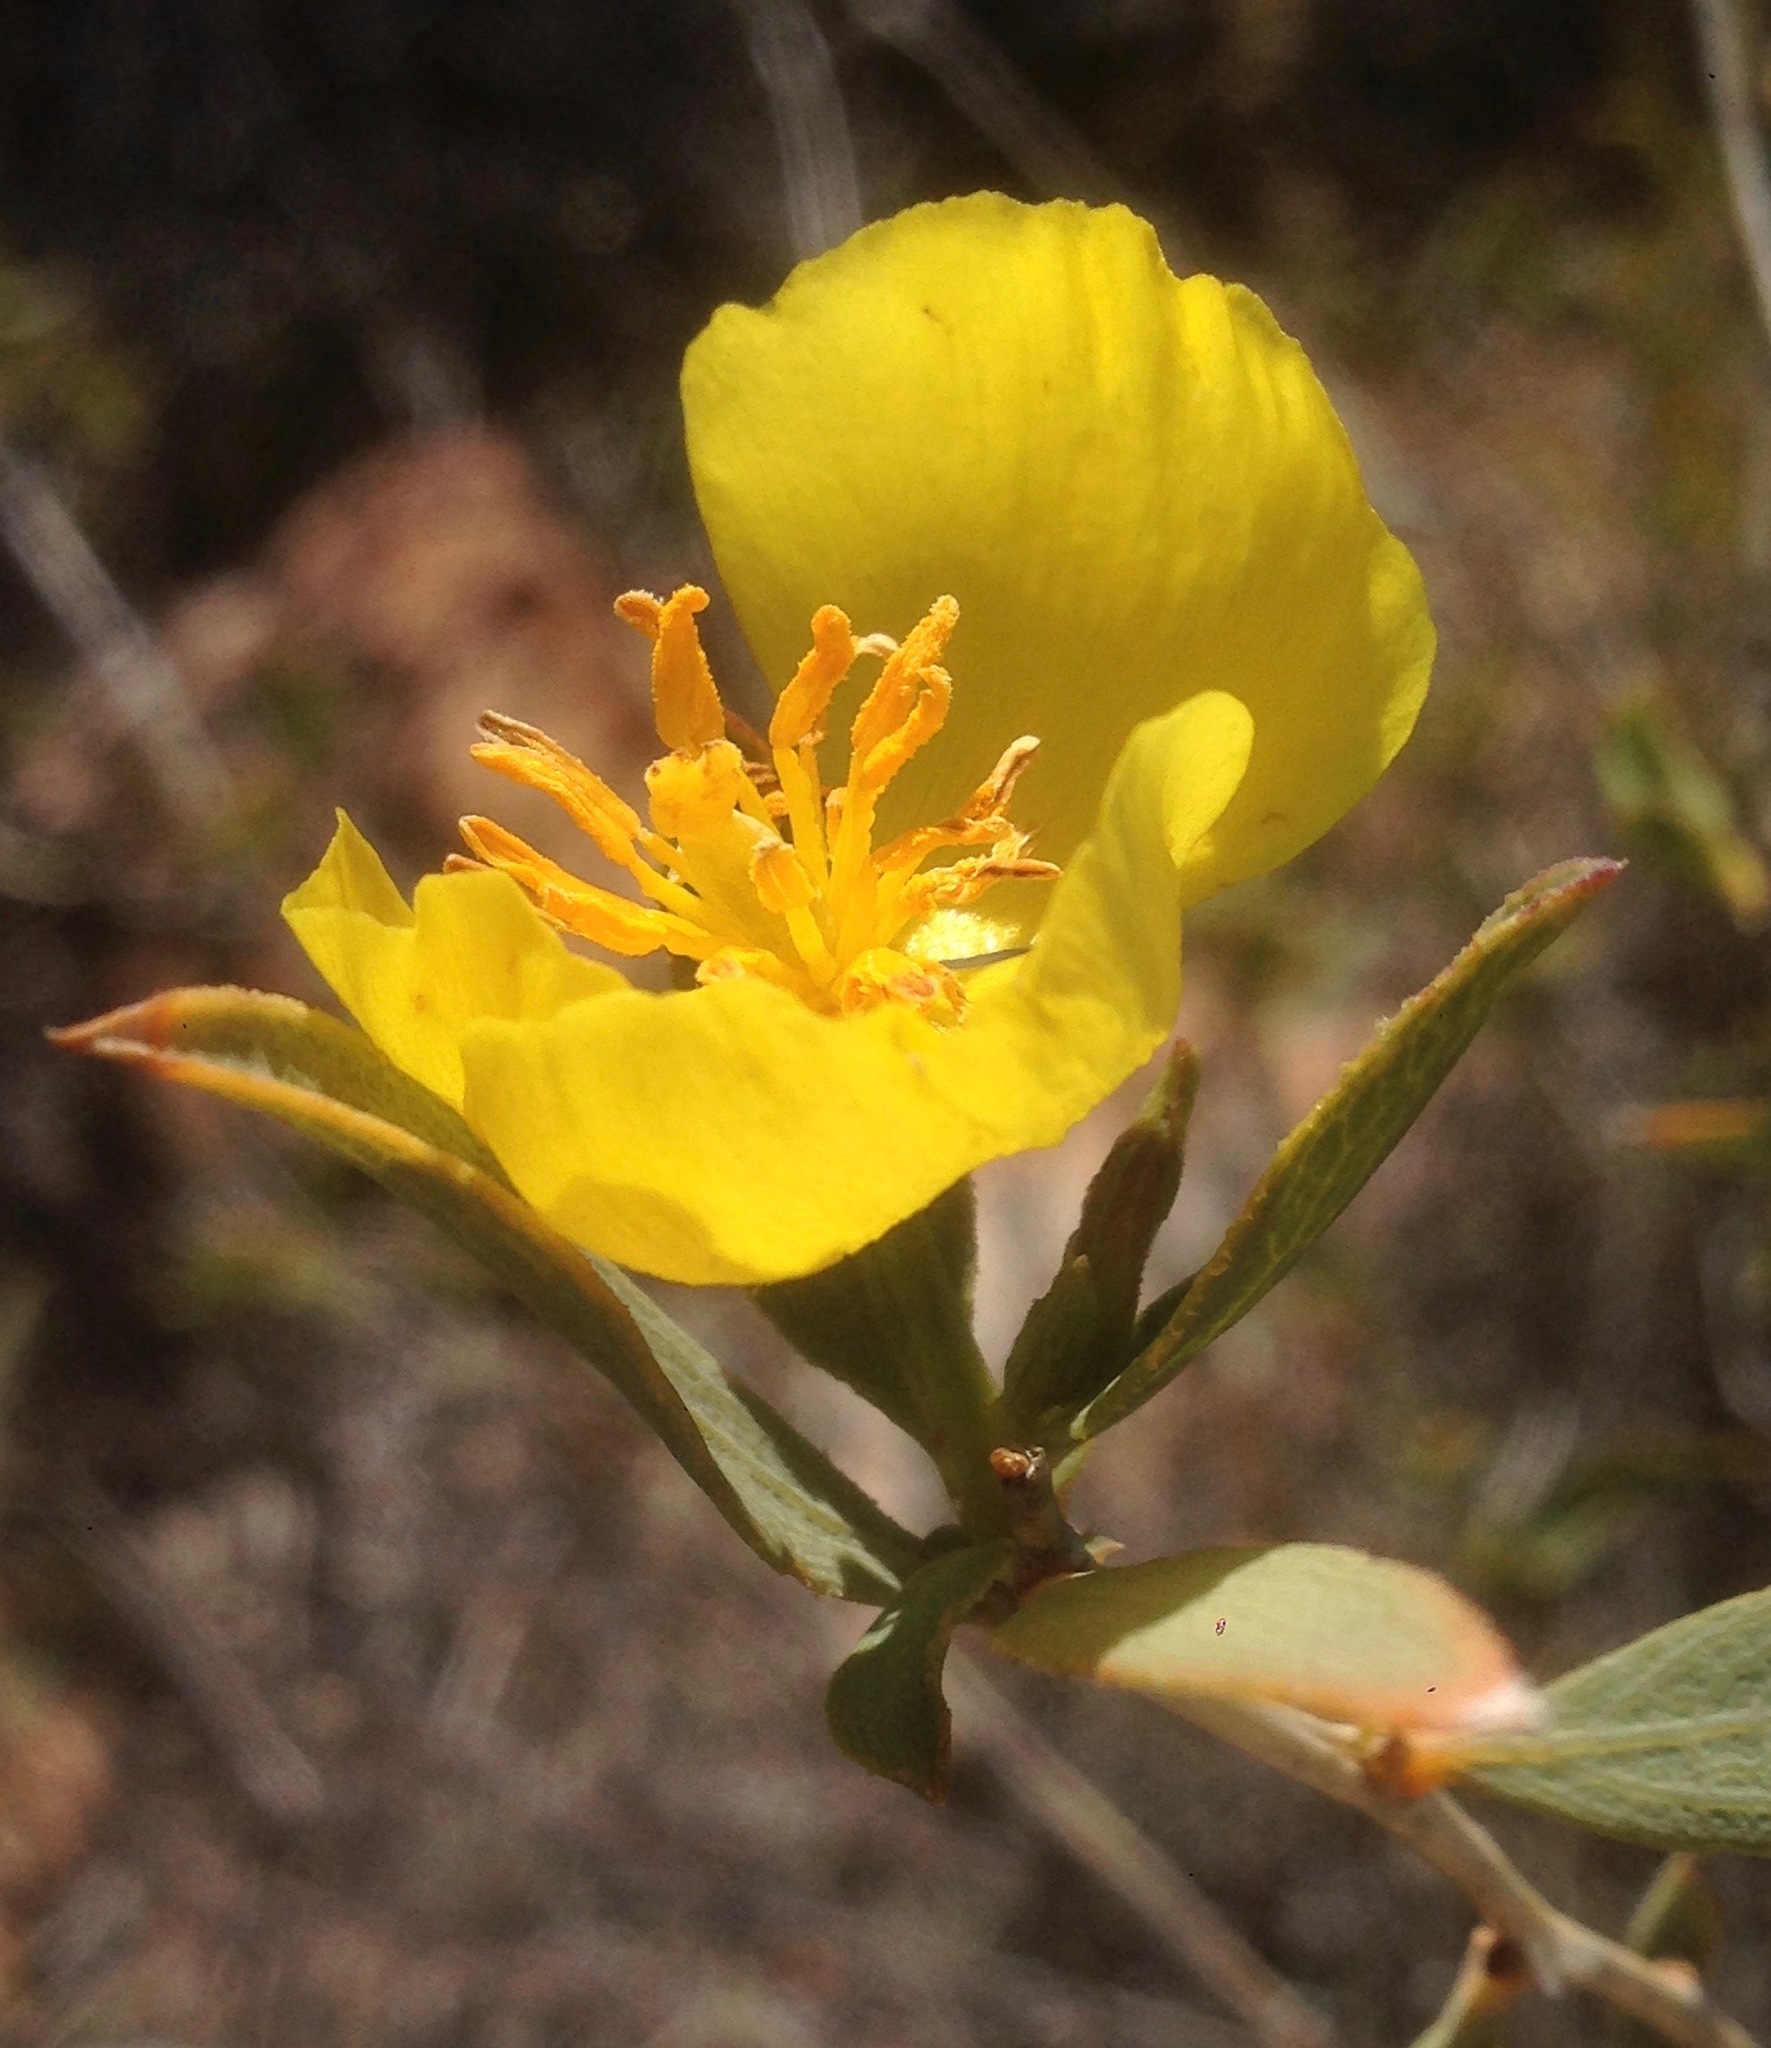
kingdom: Plantae
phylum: Tracheophyta
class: Magnoliopsida
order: Ranunculales
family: Papaveraceae
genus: Dendromecon
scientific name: Dendromecon rigida
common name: Tree poppy
